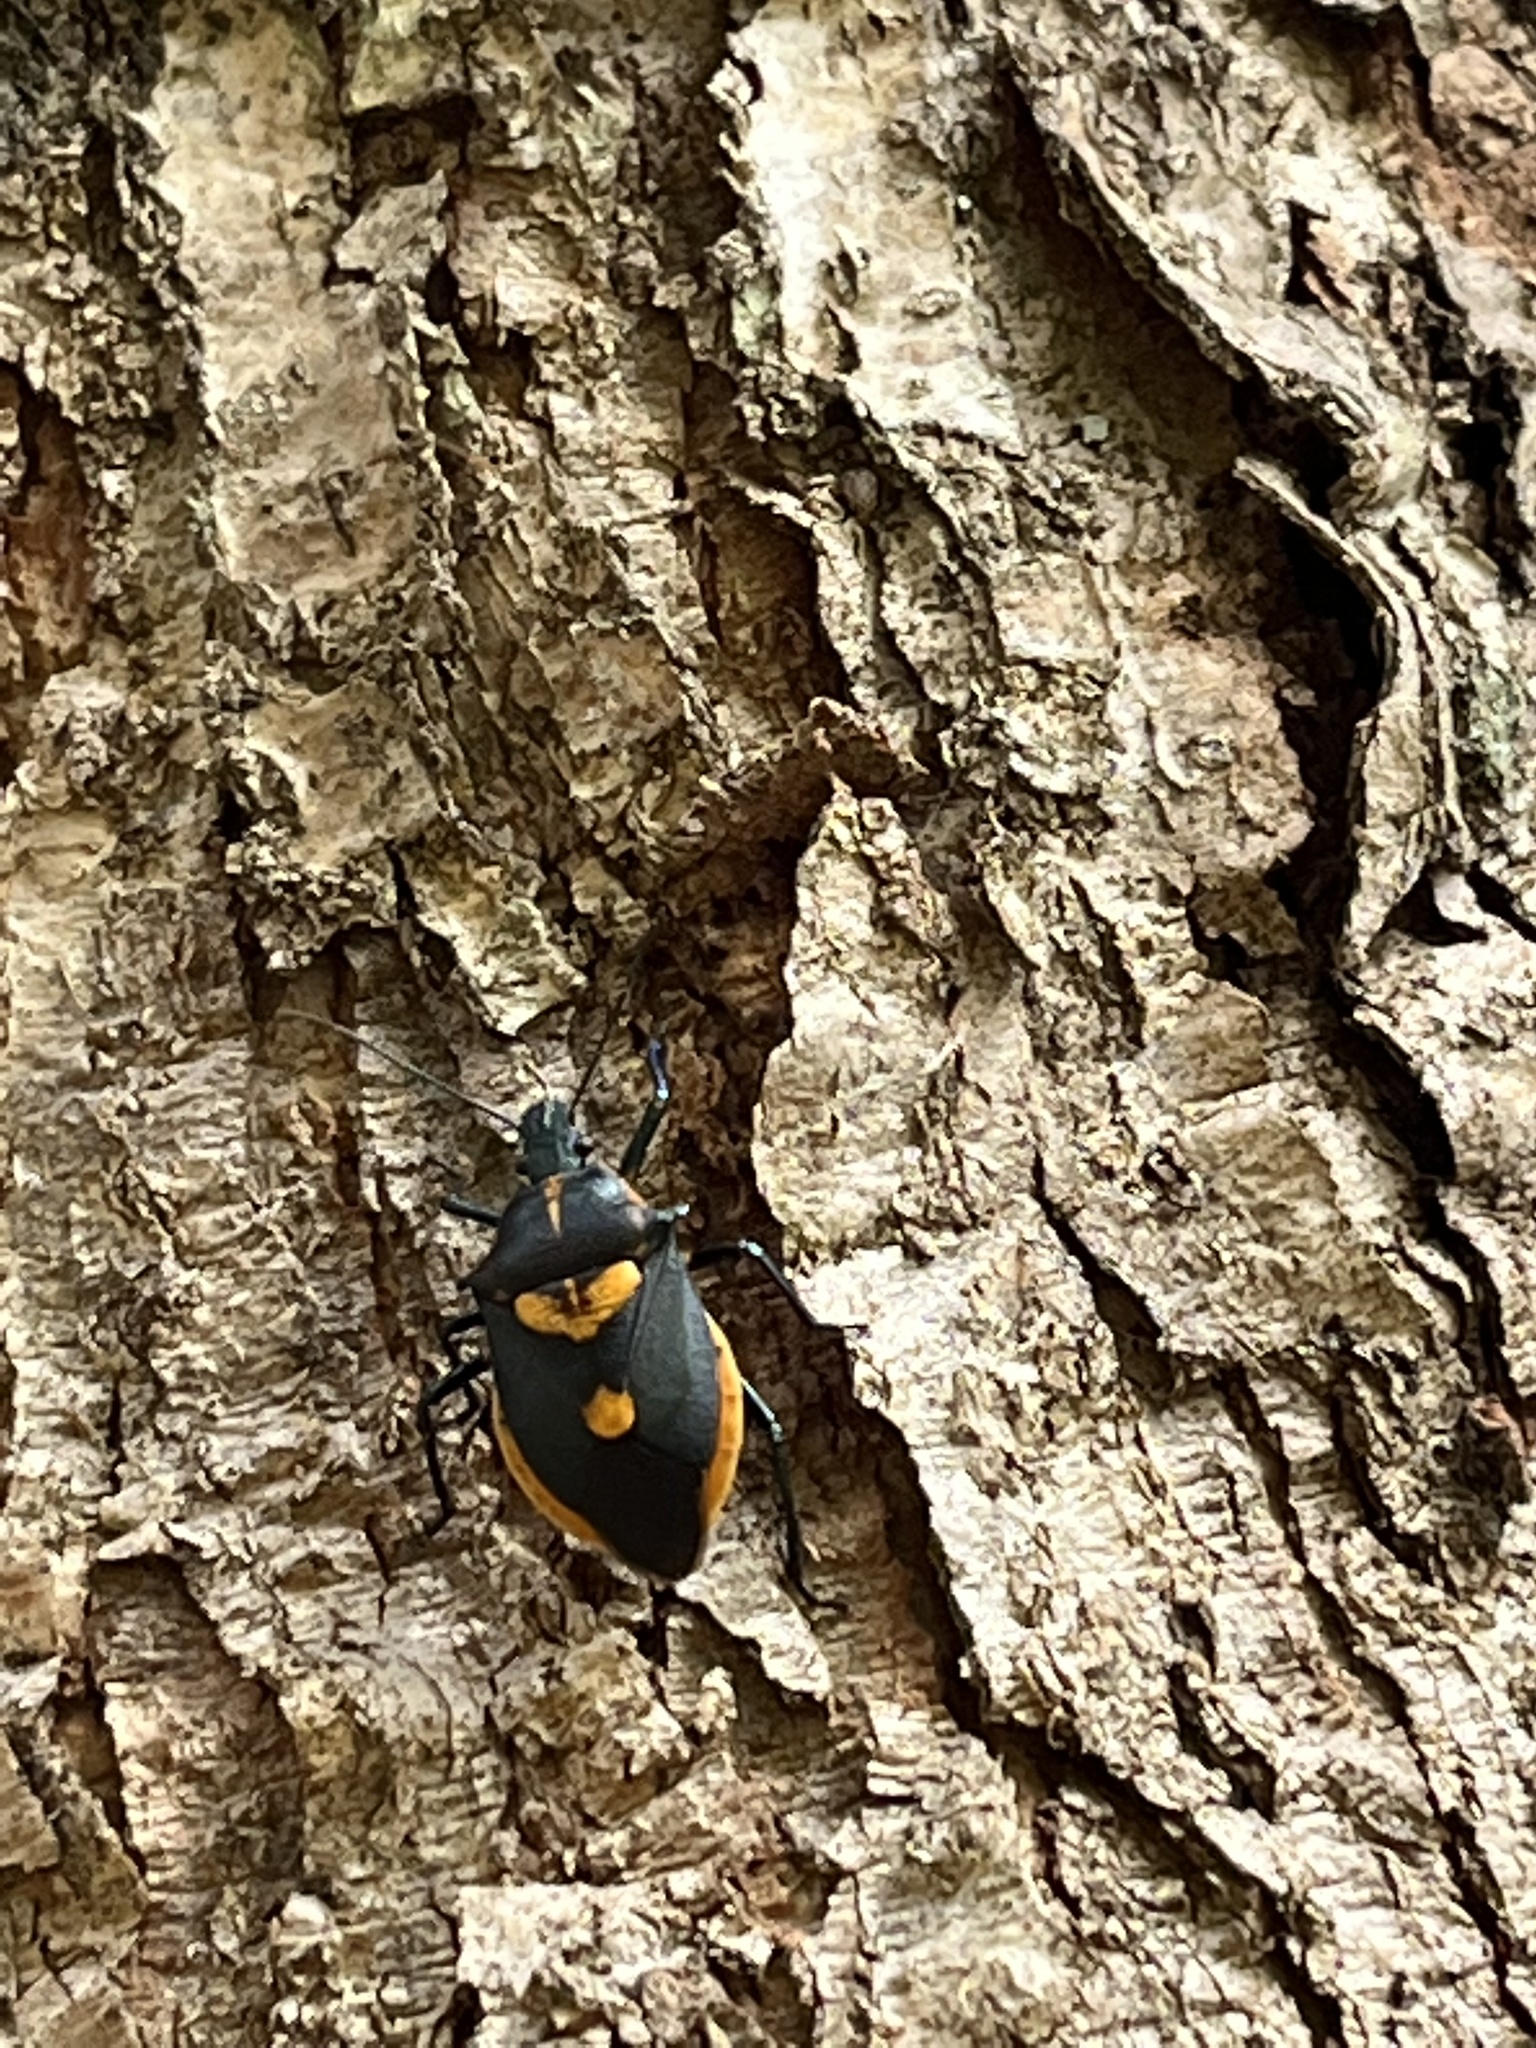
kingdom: Animalia
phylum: Arthropoda
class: Insecta
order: Hemiptera
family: Pentatomidae
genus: Euthyrhynchus
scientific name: Euthyrhynchus floridanus
